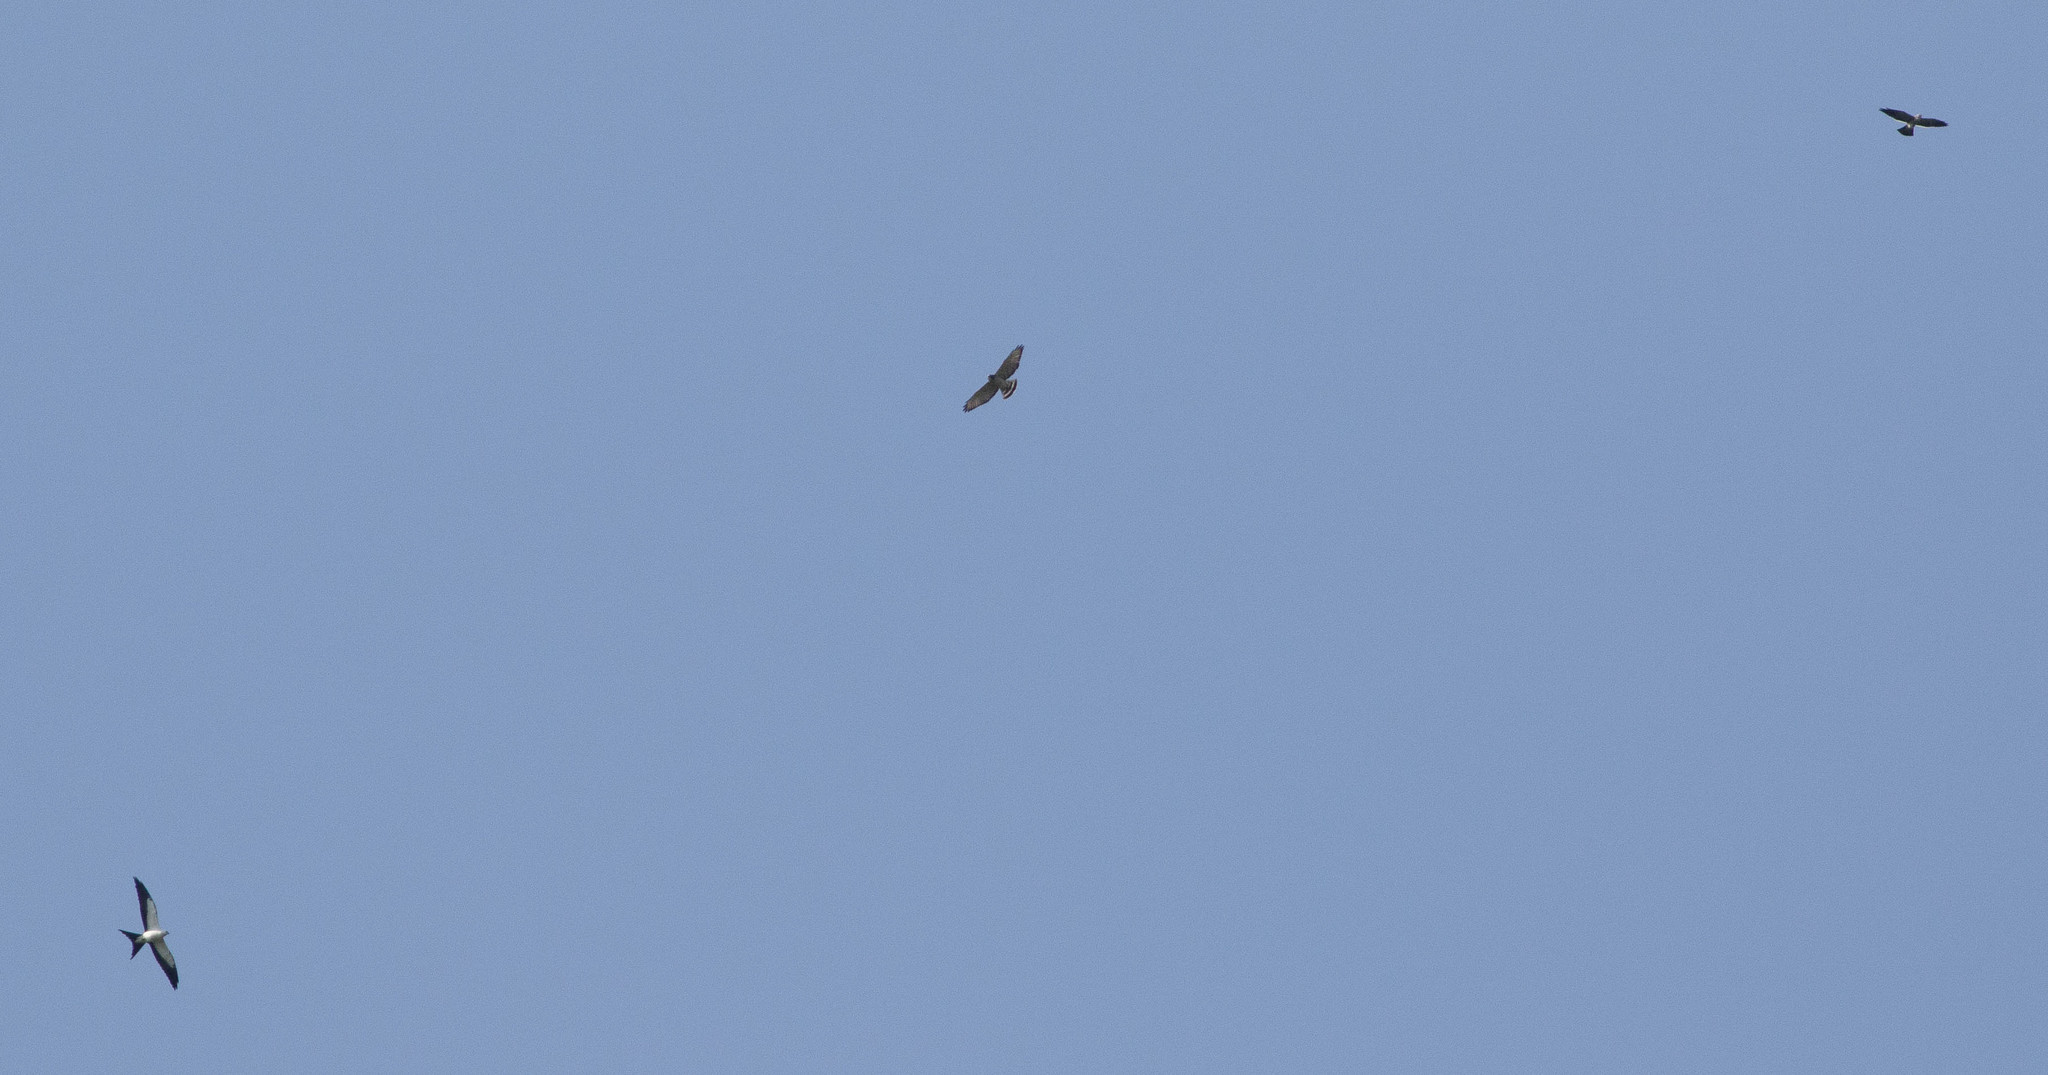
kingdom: Animalia
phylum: Chordata
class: Aves
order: Accipitriformes
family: Accipitridae
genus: Elanoides
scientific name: Elanoides forficatus
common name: Swallow-tailed kite
